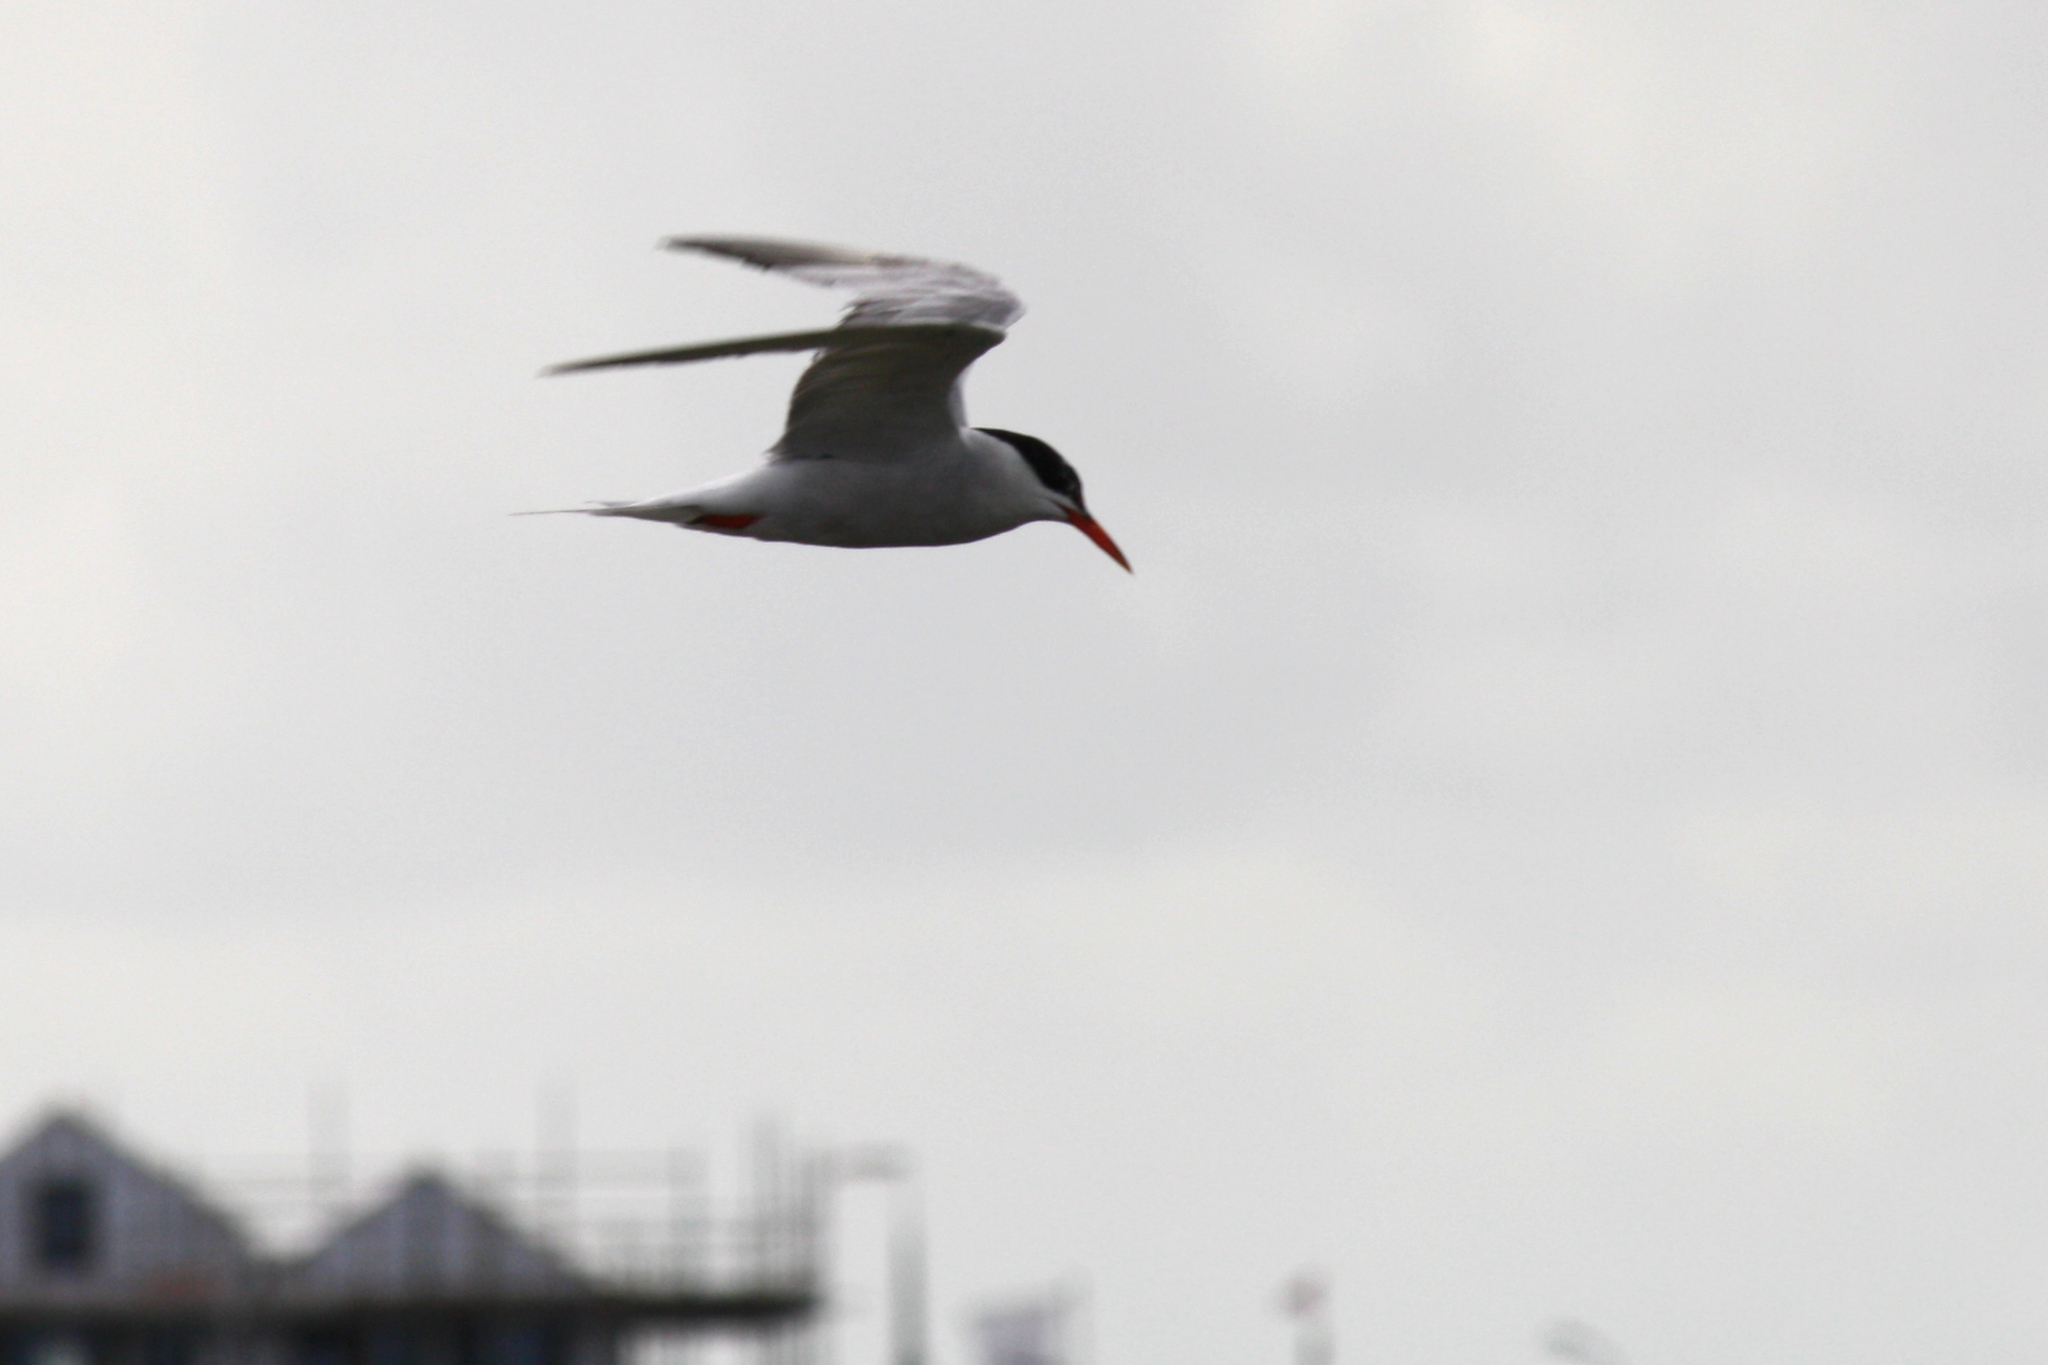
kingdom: Animalia
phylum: Chordata
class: Aves
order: Charadriiformes
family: Laridae
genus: Sterna
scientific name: Sterna hirundo
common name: Common tern
